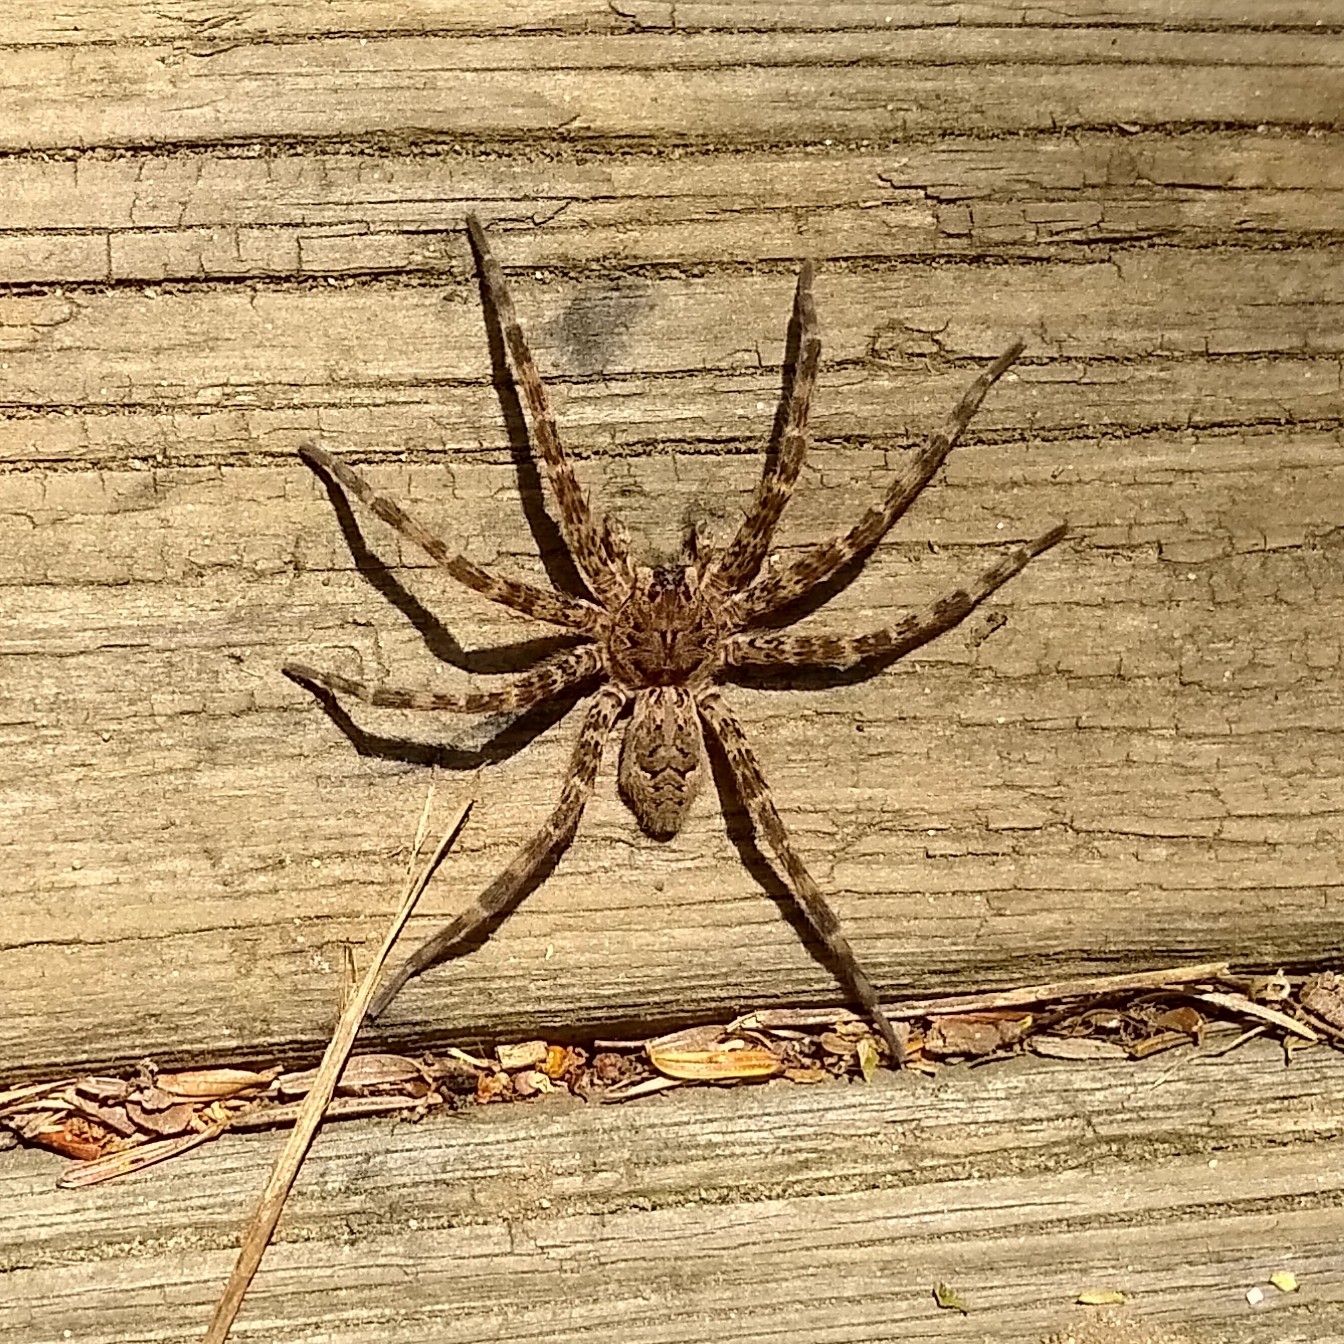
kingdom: Animalia
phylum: Arthropoda
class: Arachnida
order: Araneae
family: Pisauridae
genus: Dolomedes
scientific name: Dolomedes tenebrosus
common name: Dark fishing spider
